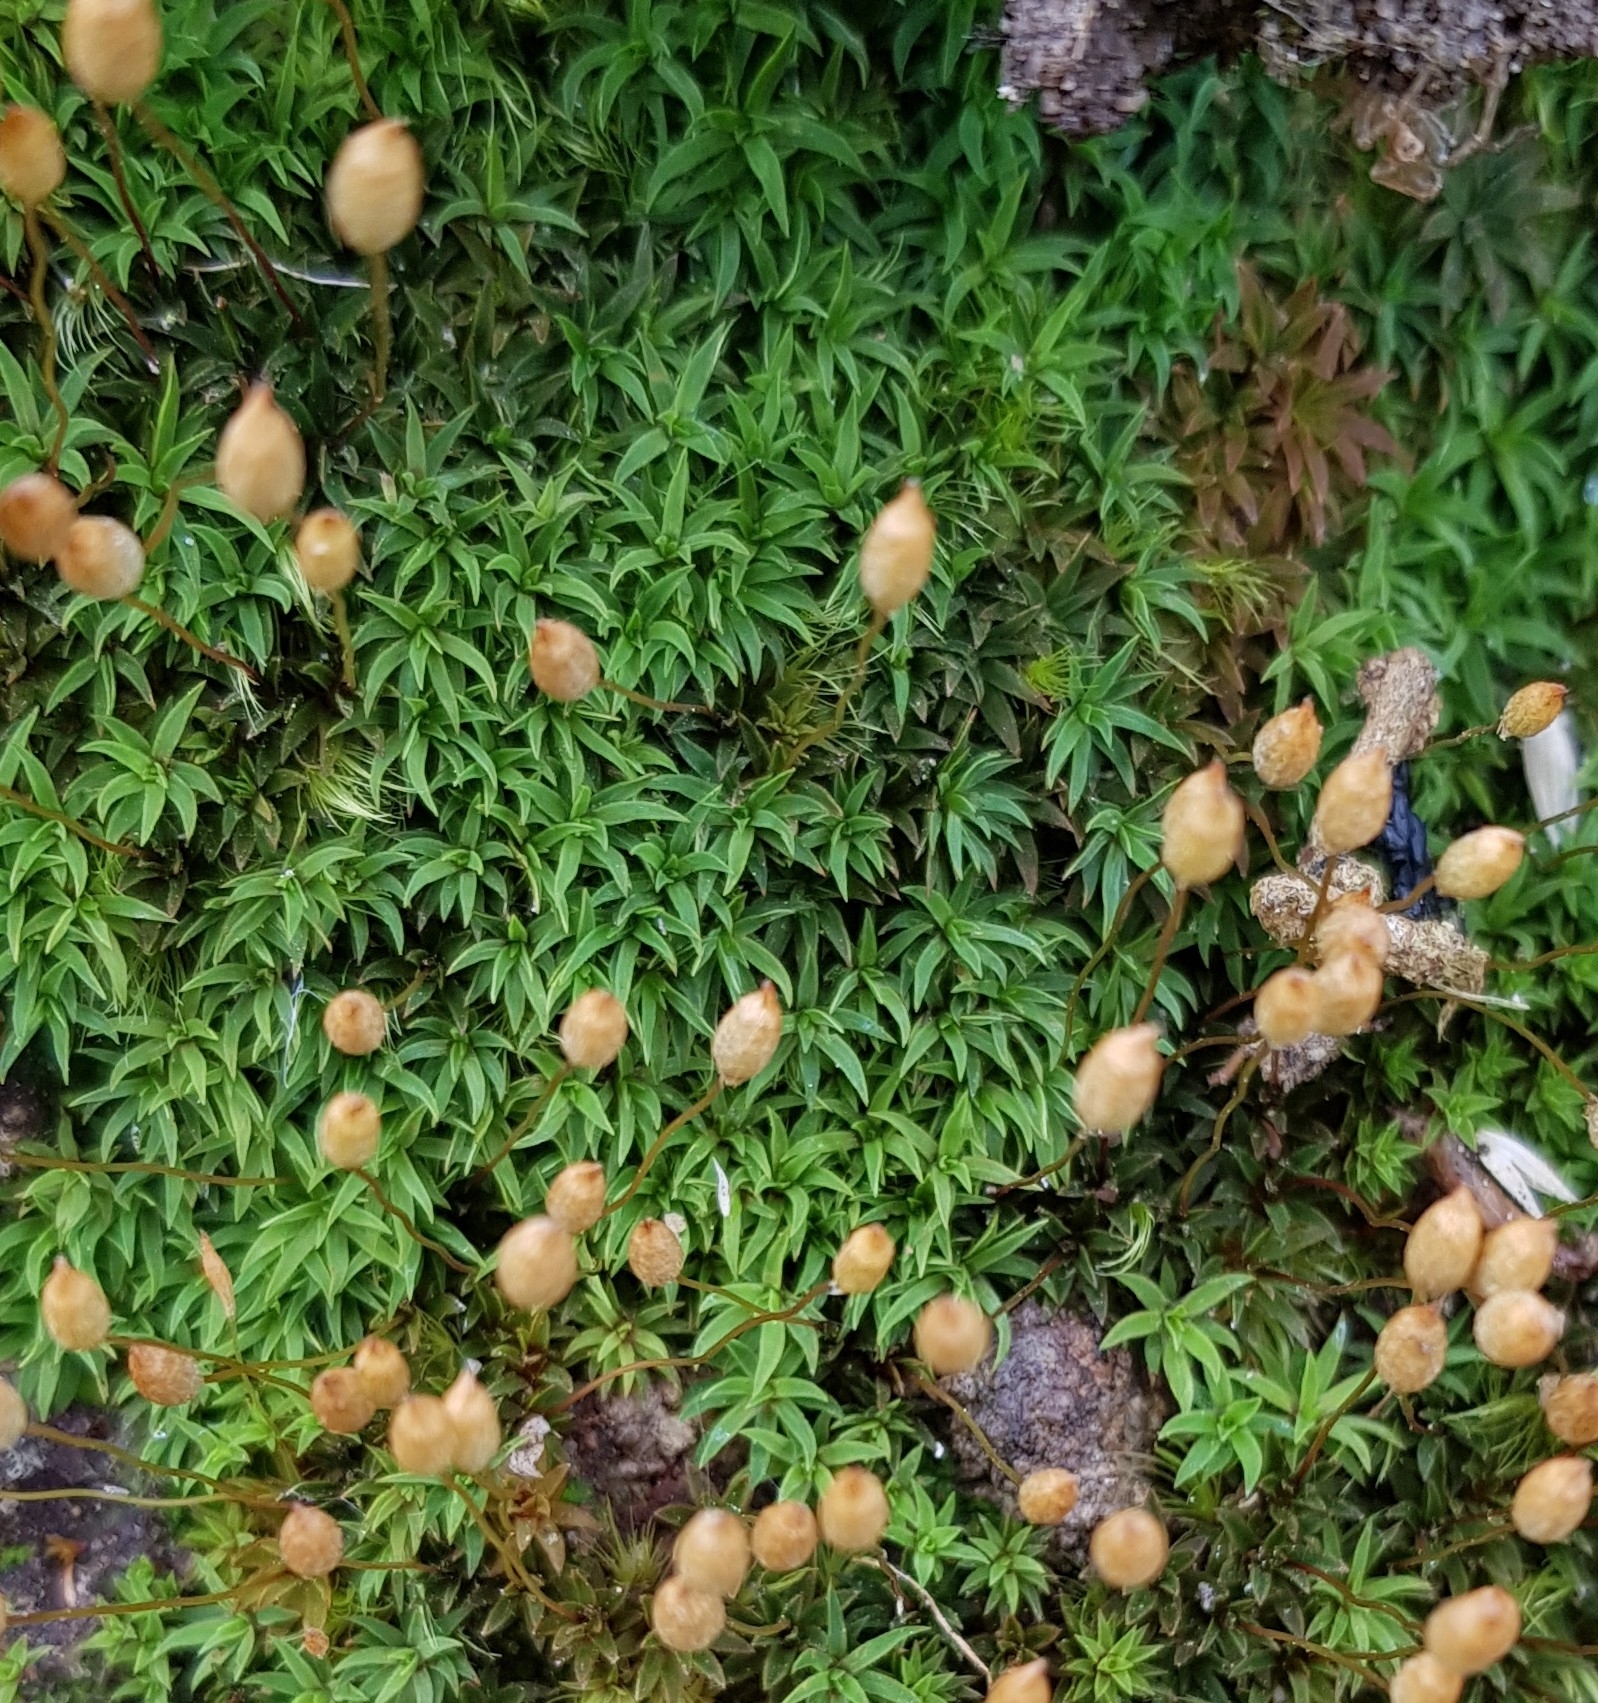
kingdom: Plantae
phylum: Bryophyta
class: Polytrichopsida
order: Polytrichales
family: Polytrichaceae
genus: Pogonatum
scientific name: Pogonatum aloides
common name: Aloe haircap
